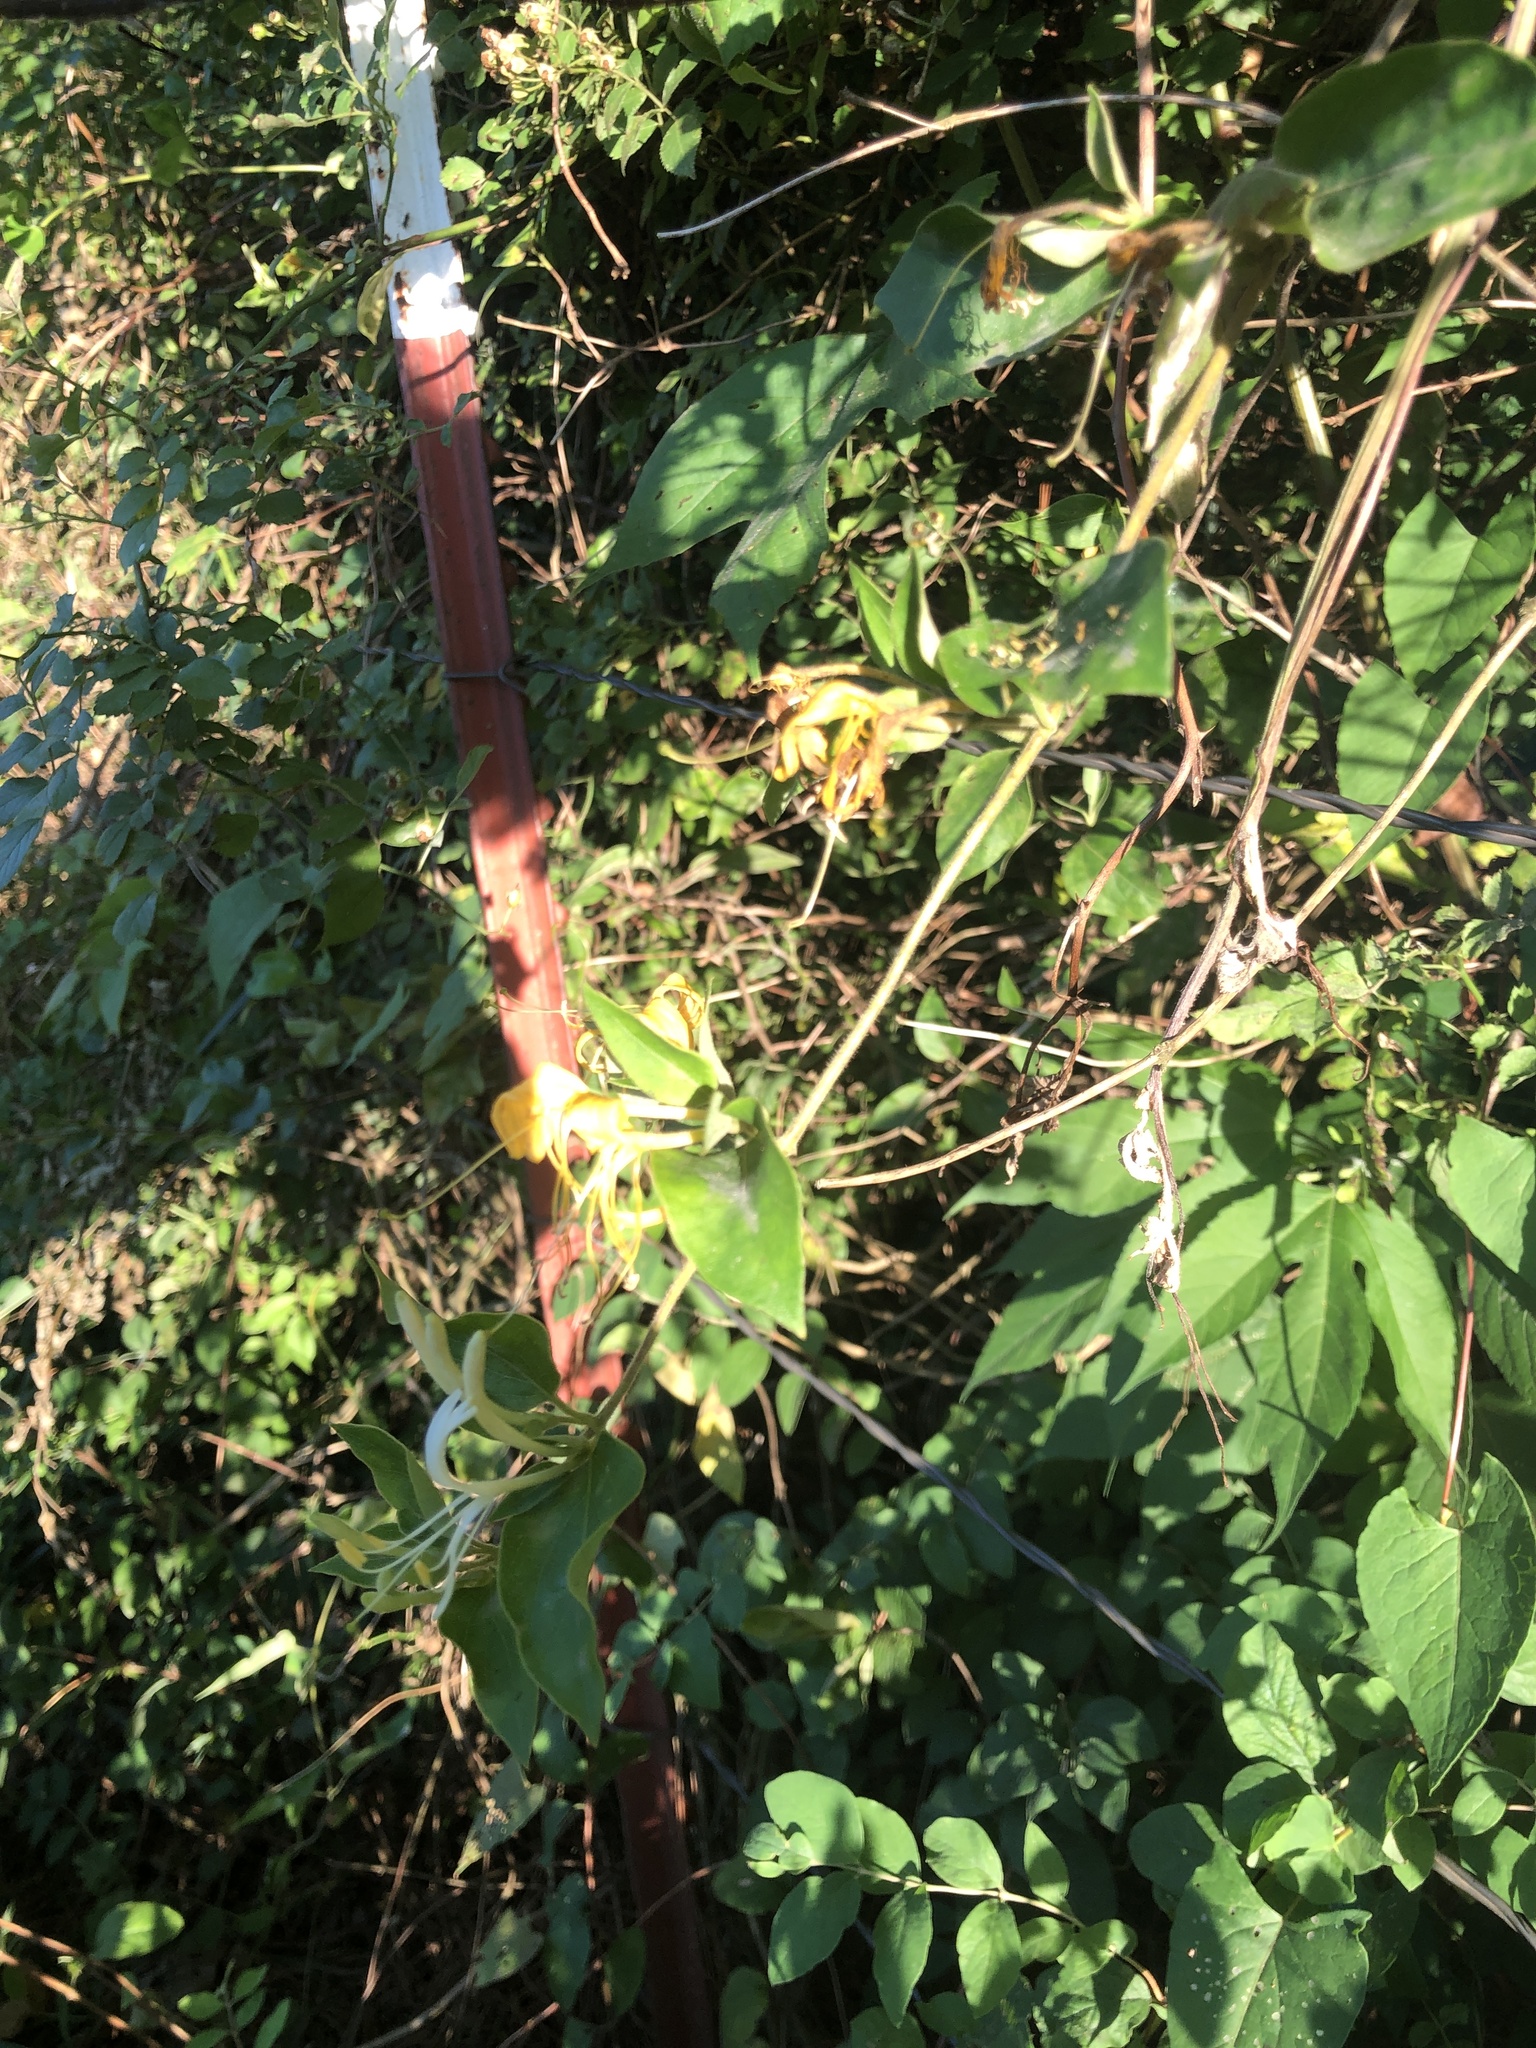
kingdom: Plantae
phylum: Tracheophyta
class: Magnoliopsida
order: Dipsacales
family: Caprifoliaceae
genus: Lonicera
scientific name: Lonicera japonica
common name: Japanese honeysuckle
